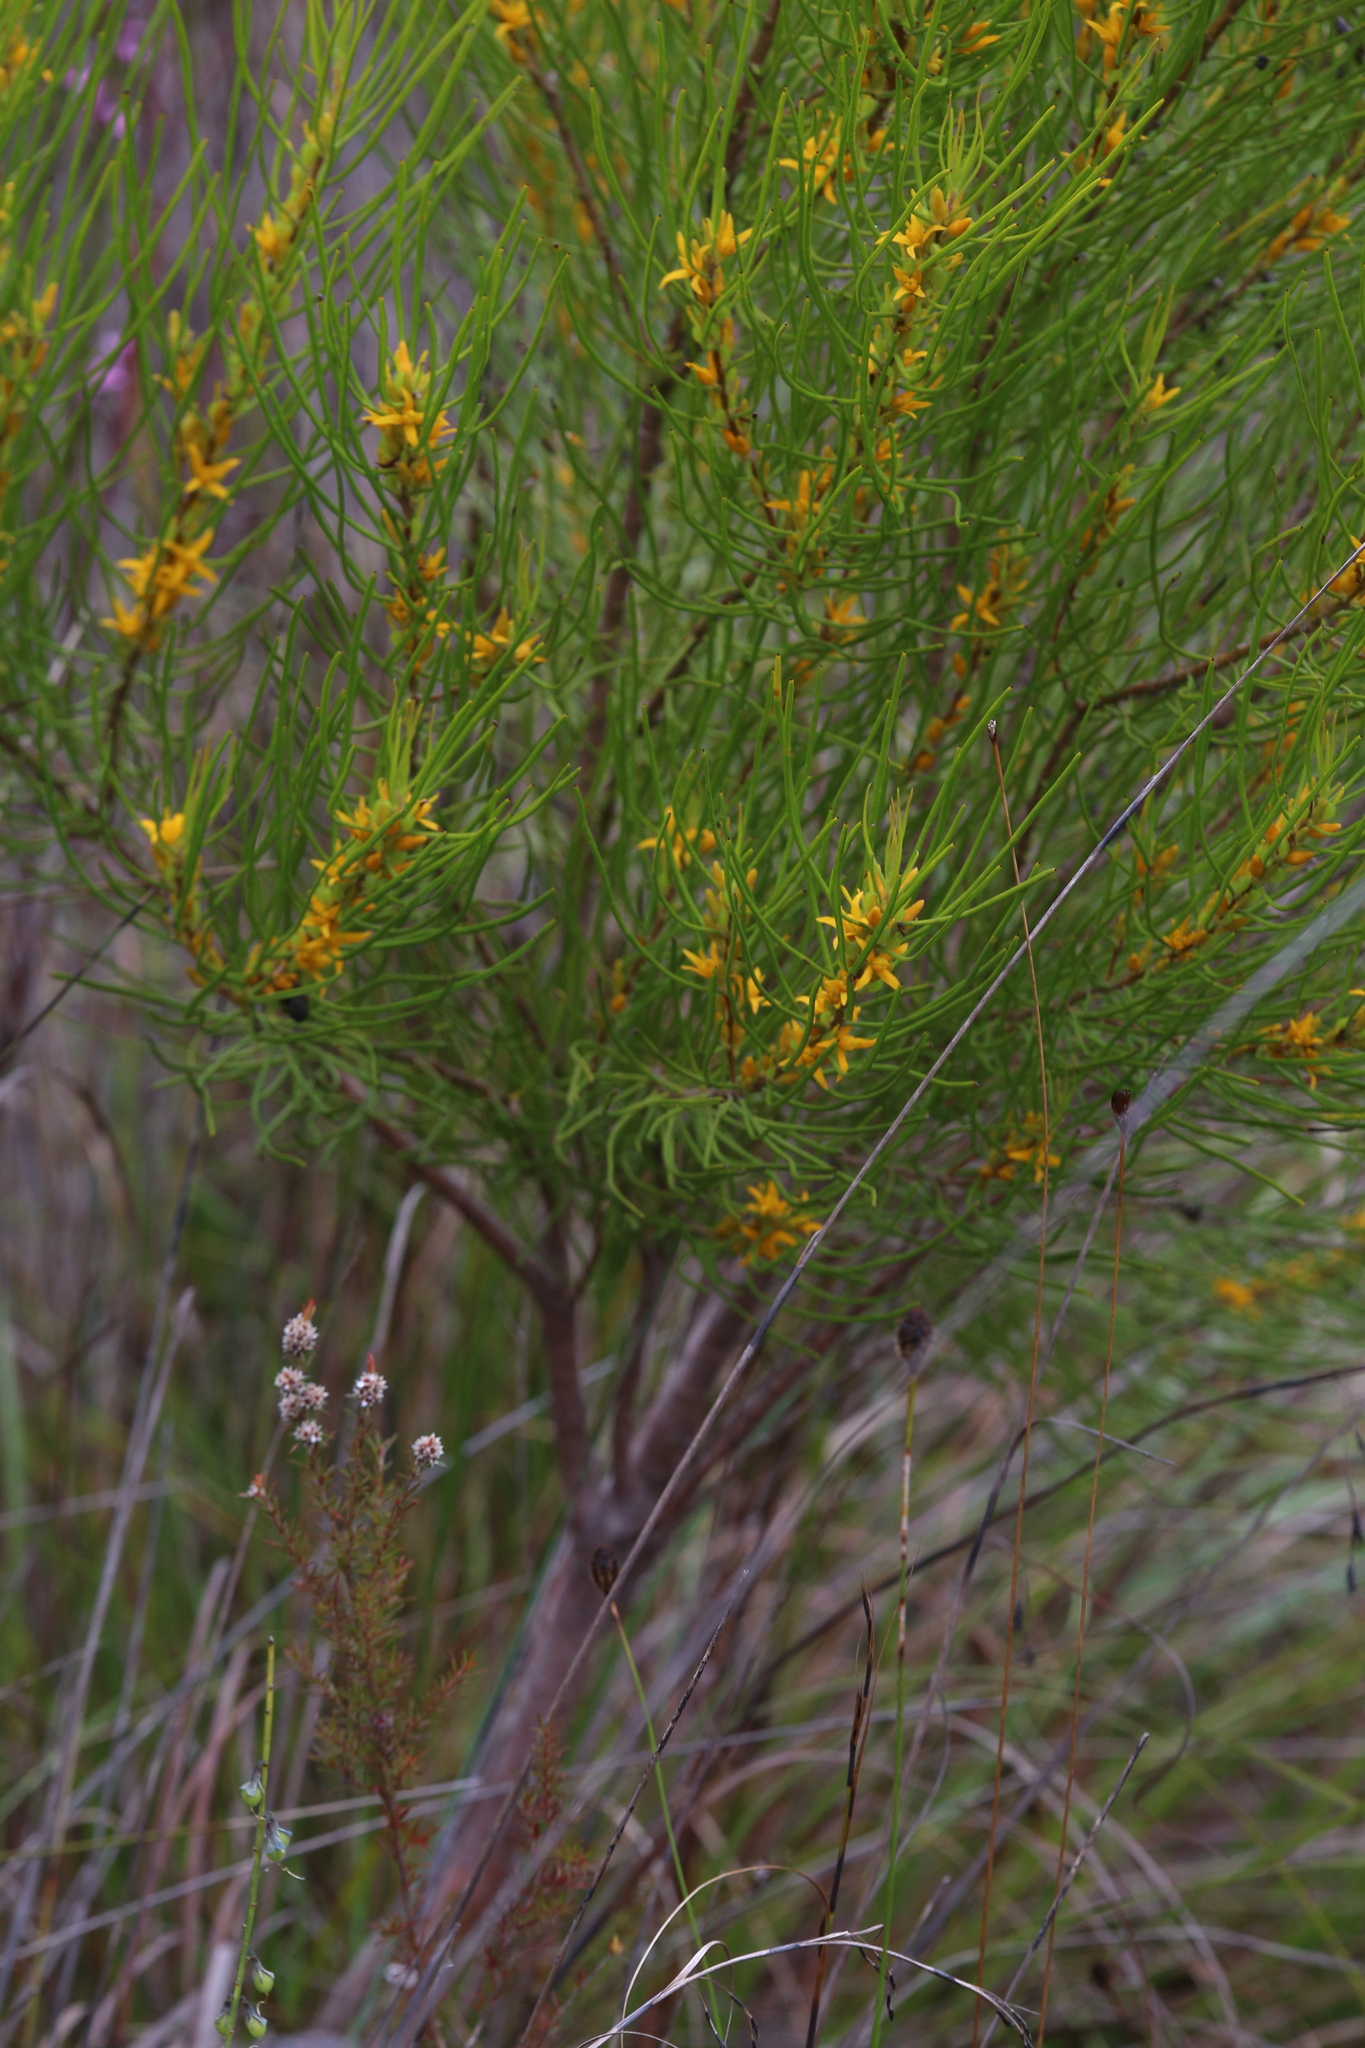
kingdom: Plantae
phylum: Tracheophyta
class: Magnoliopsida
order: Proteales
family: Proteaceae
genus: Acidonia
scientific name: Acidonia microcarpa
